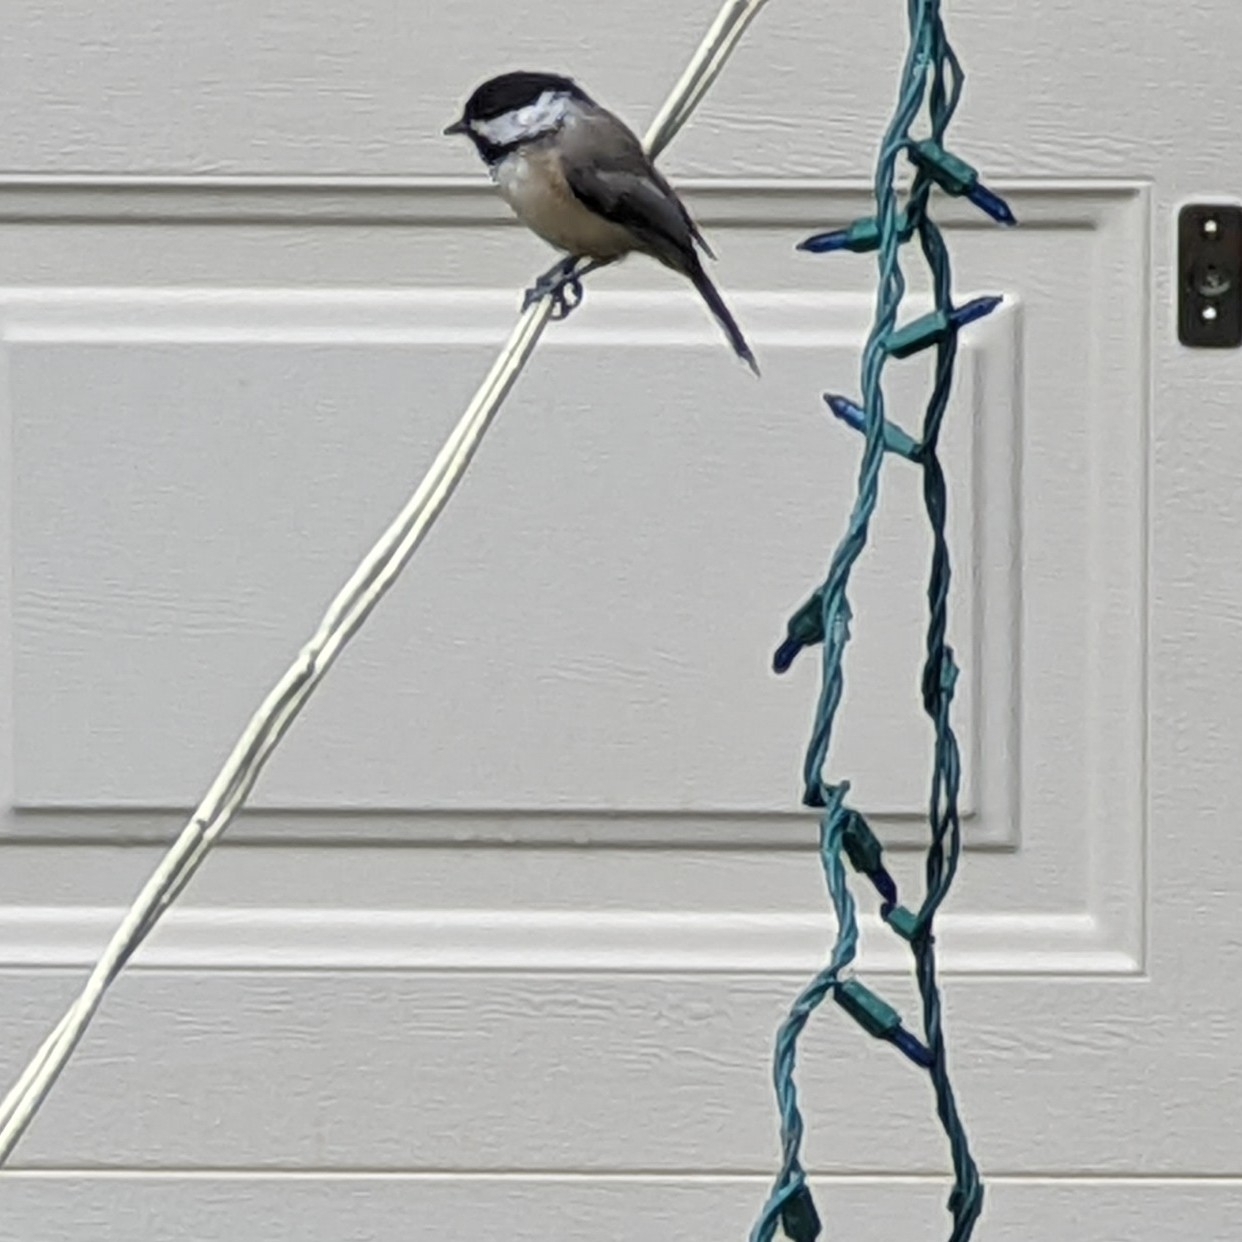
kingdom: Animalia
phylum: Chordata
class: Aves
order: Passeriformes
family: Paridae
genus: Poecile
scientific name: Poecile carolinensis
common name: Carolina chickadee
